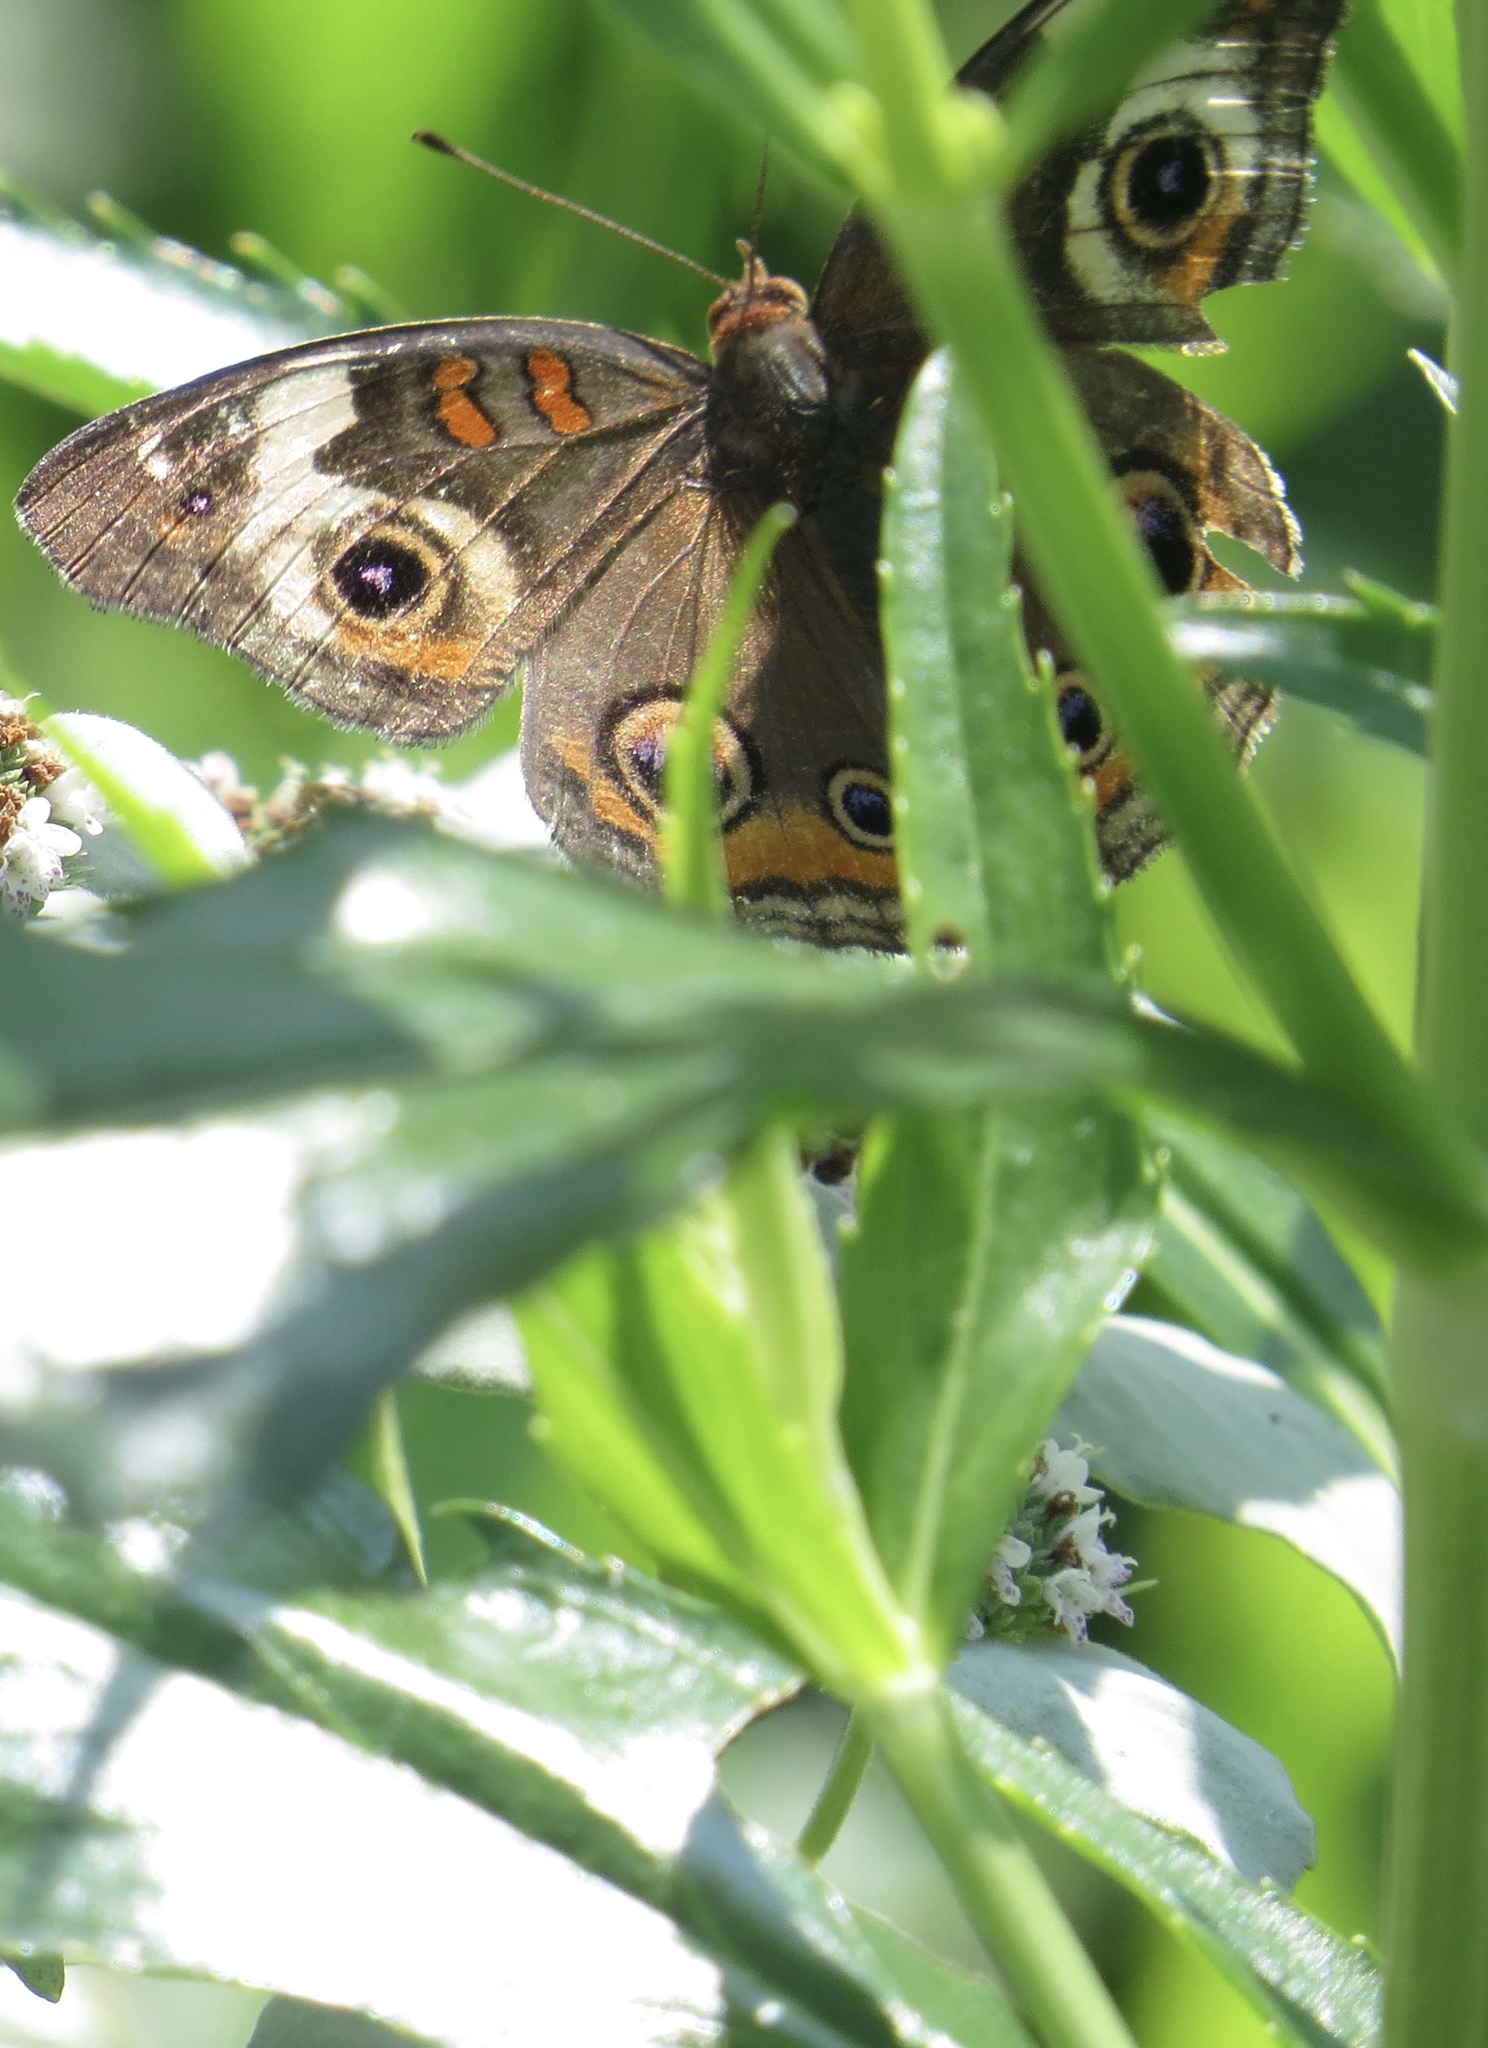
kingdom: Animalia
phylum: Arthropoda
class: Insecta
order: Lepidoptera
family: Nymphalidae
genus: Junonia
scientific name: Junonia coenia
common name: Common buckeye
